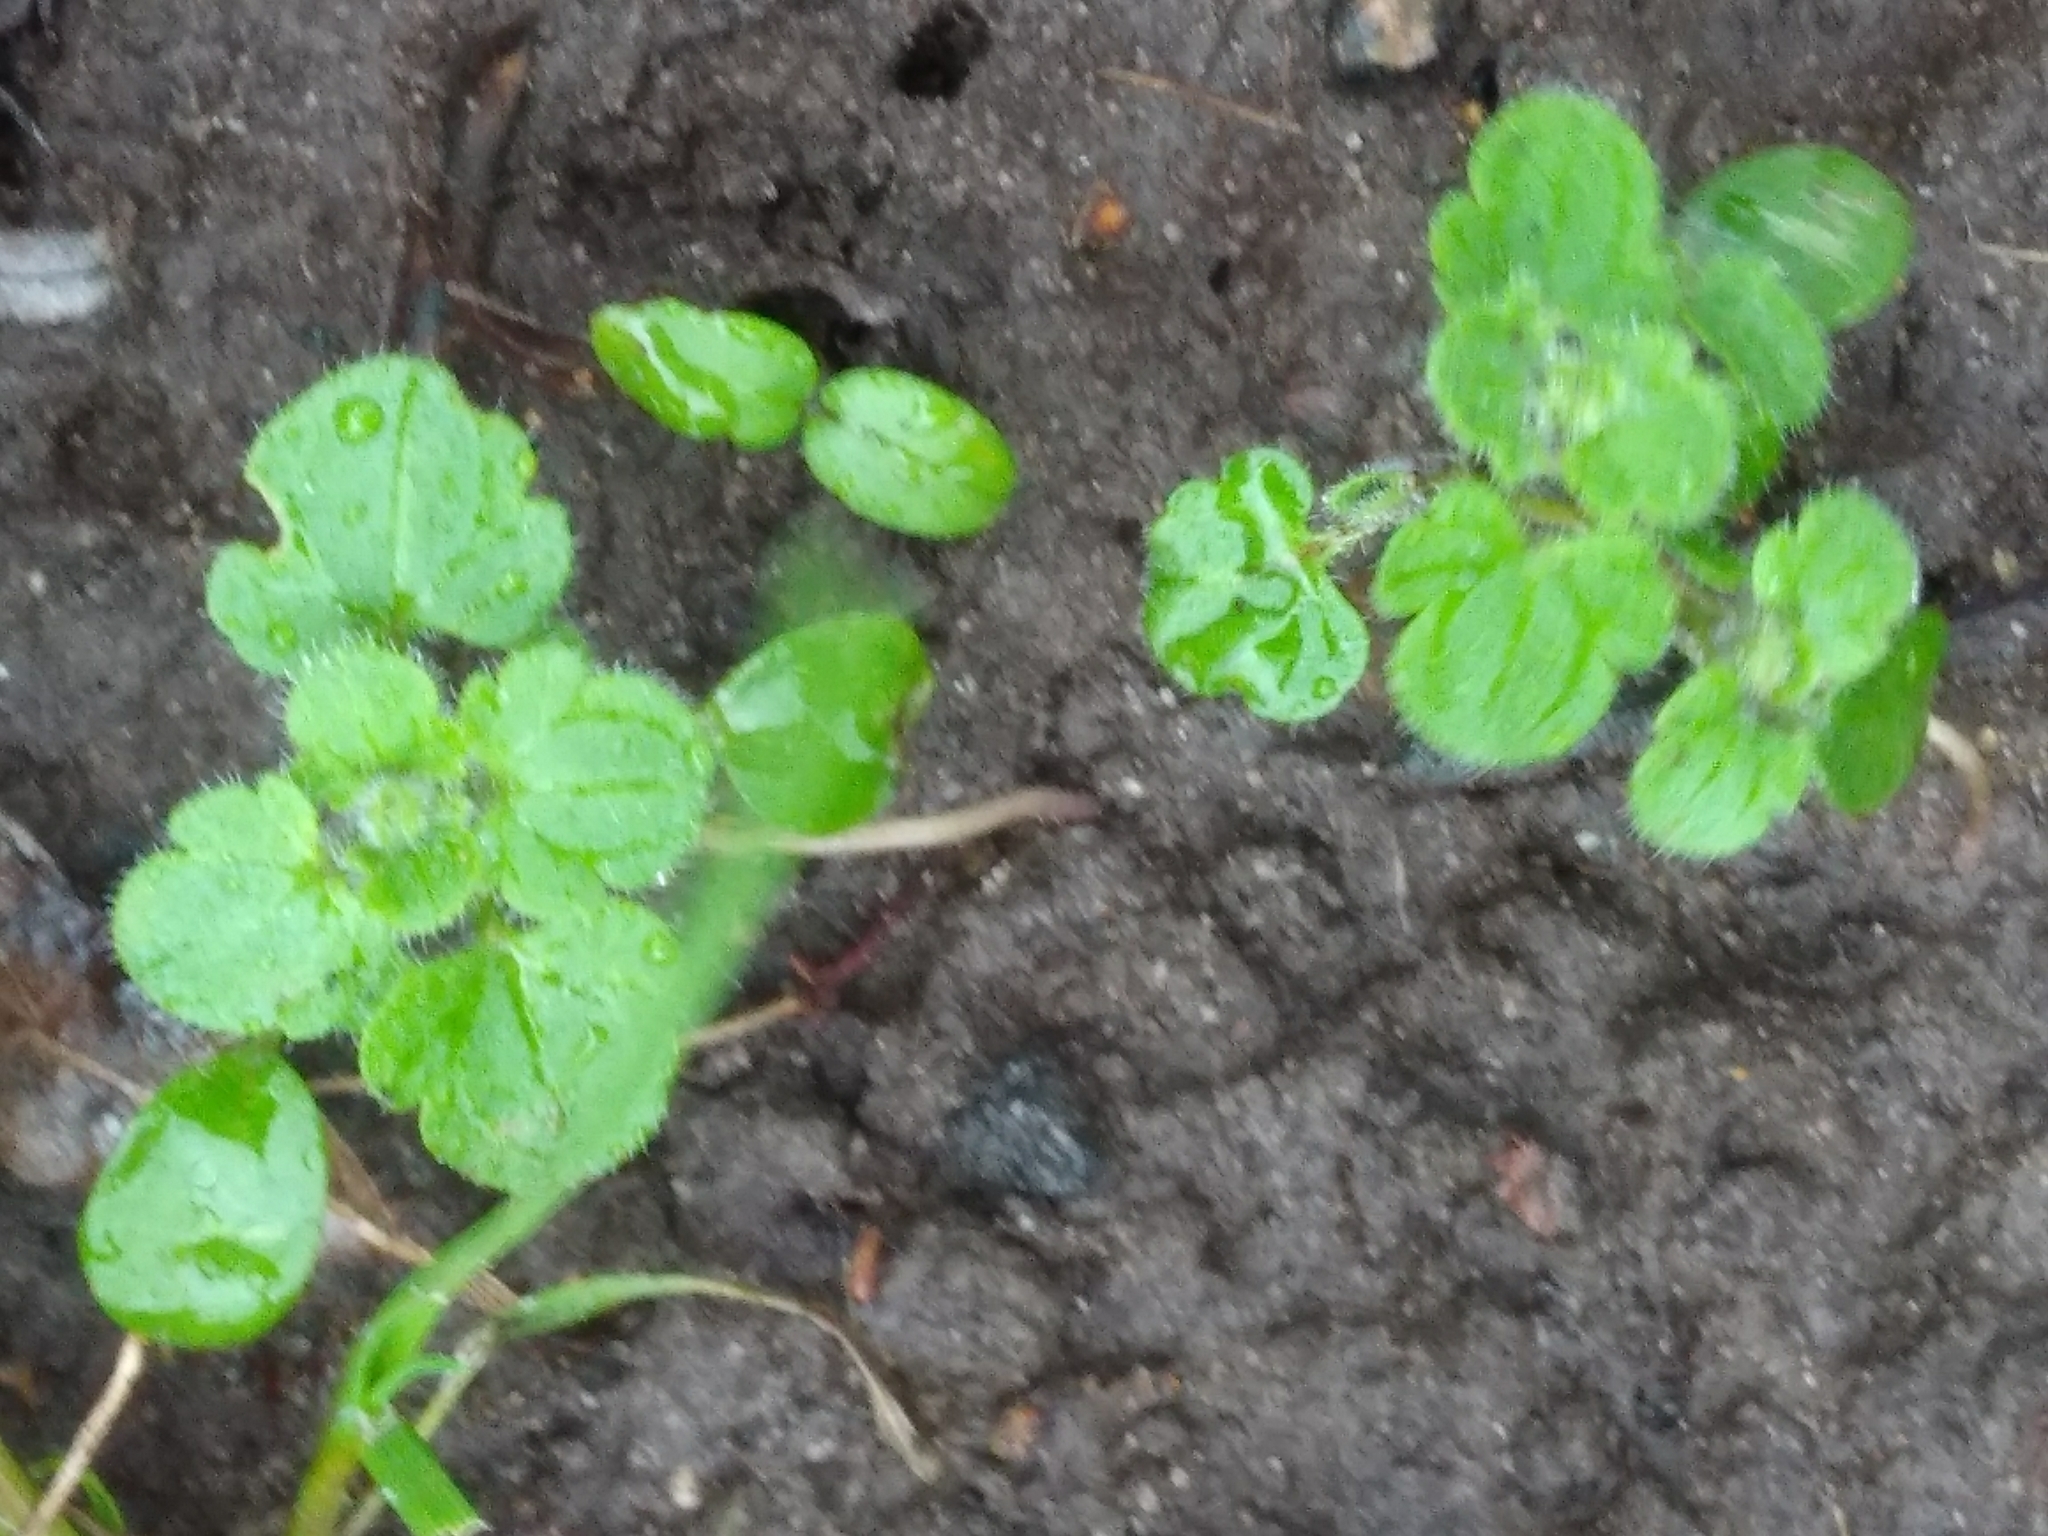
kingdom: Plantae
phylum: Tracheophyta
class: Magnoliopsida
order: Lamiales
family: Plantaginaceae
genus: Veronica
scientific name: Veronica hederifolia
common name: Ivy-leaved speedwell
